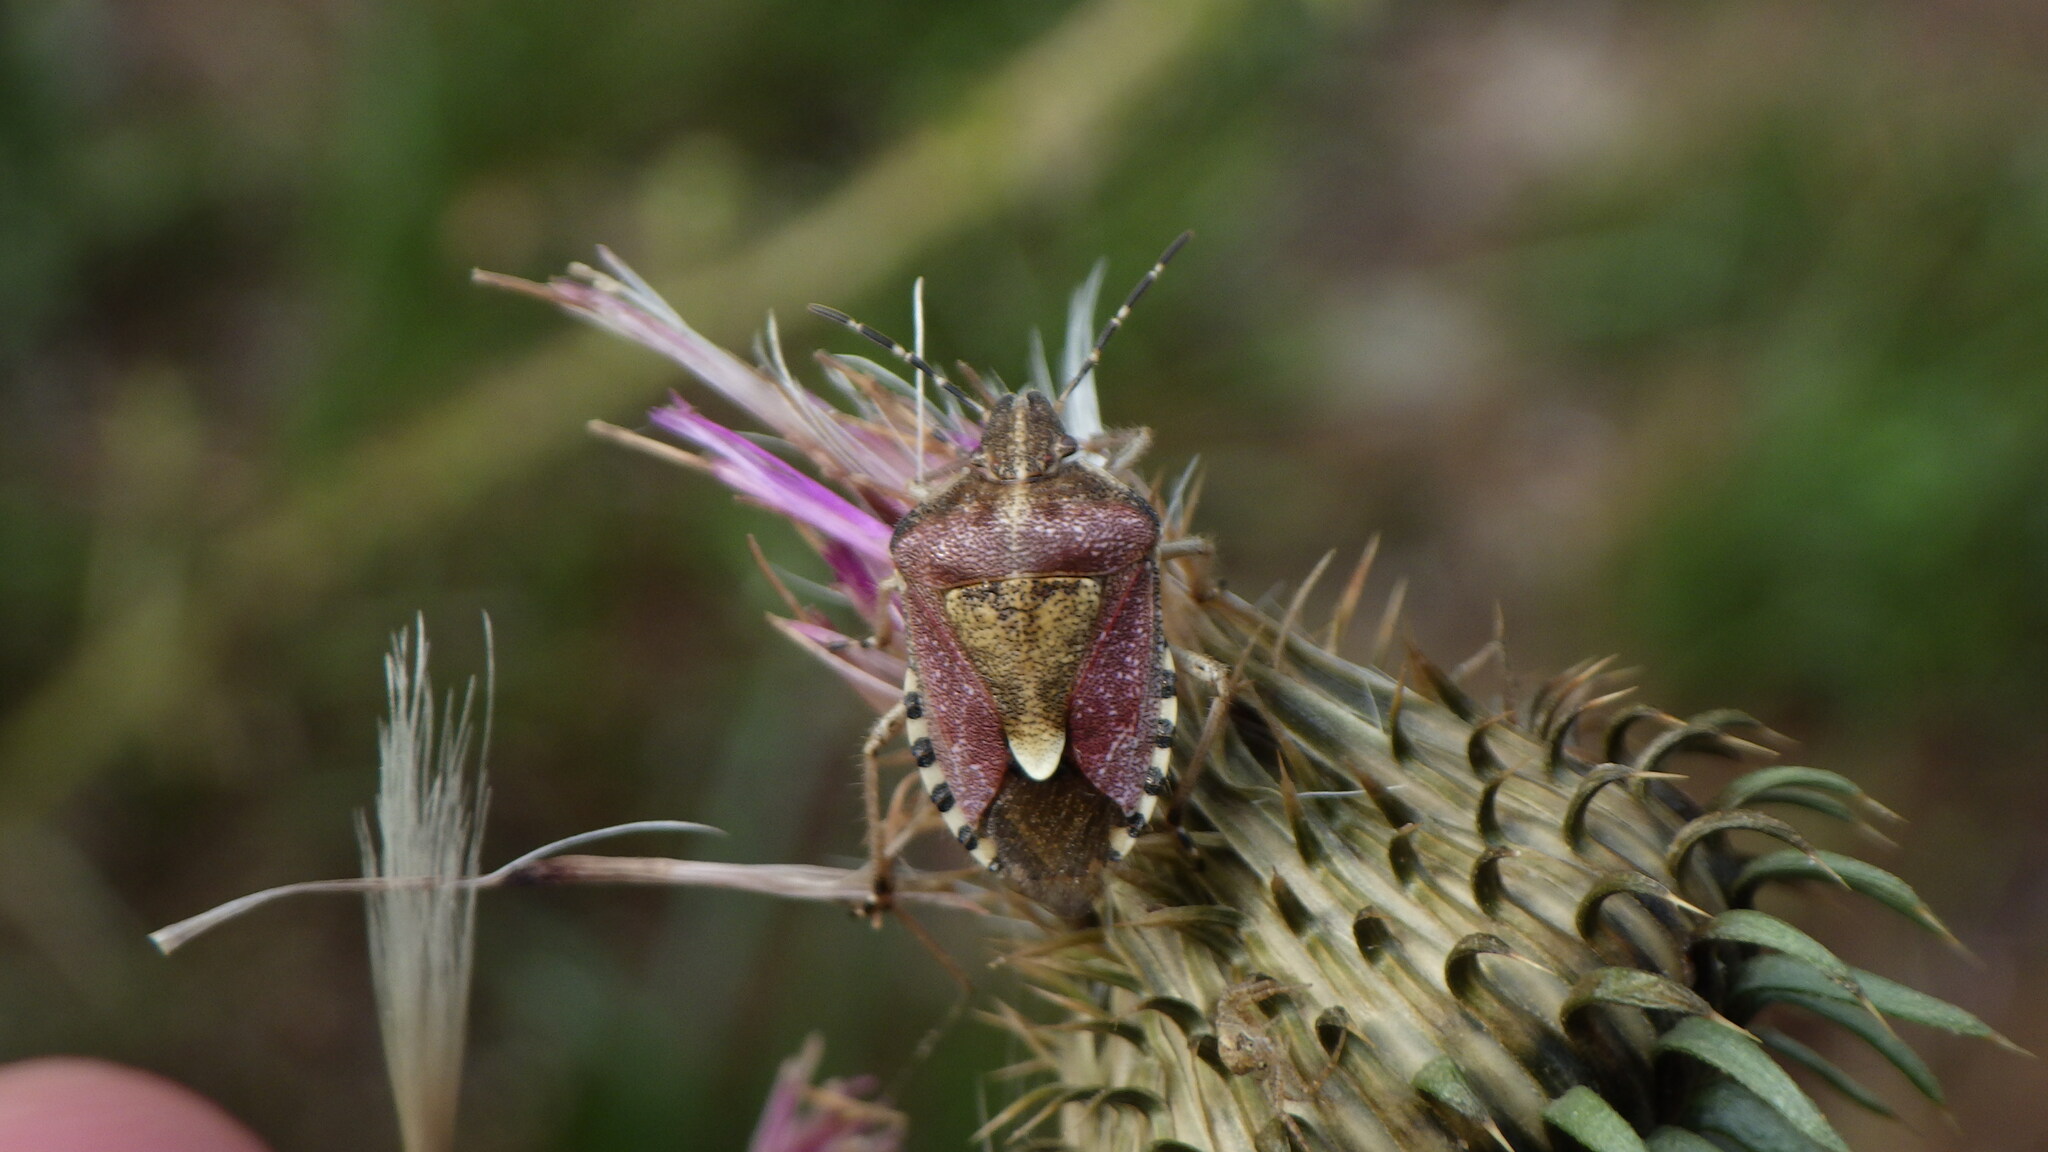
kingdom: Animalia
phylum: Arthropoda
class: Insecta
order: Hemiptera
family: Pentatomidae
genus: Dolycoris
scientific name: Dolycoris baccarum
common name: Sloe bug
